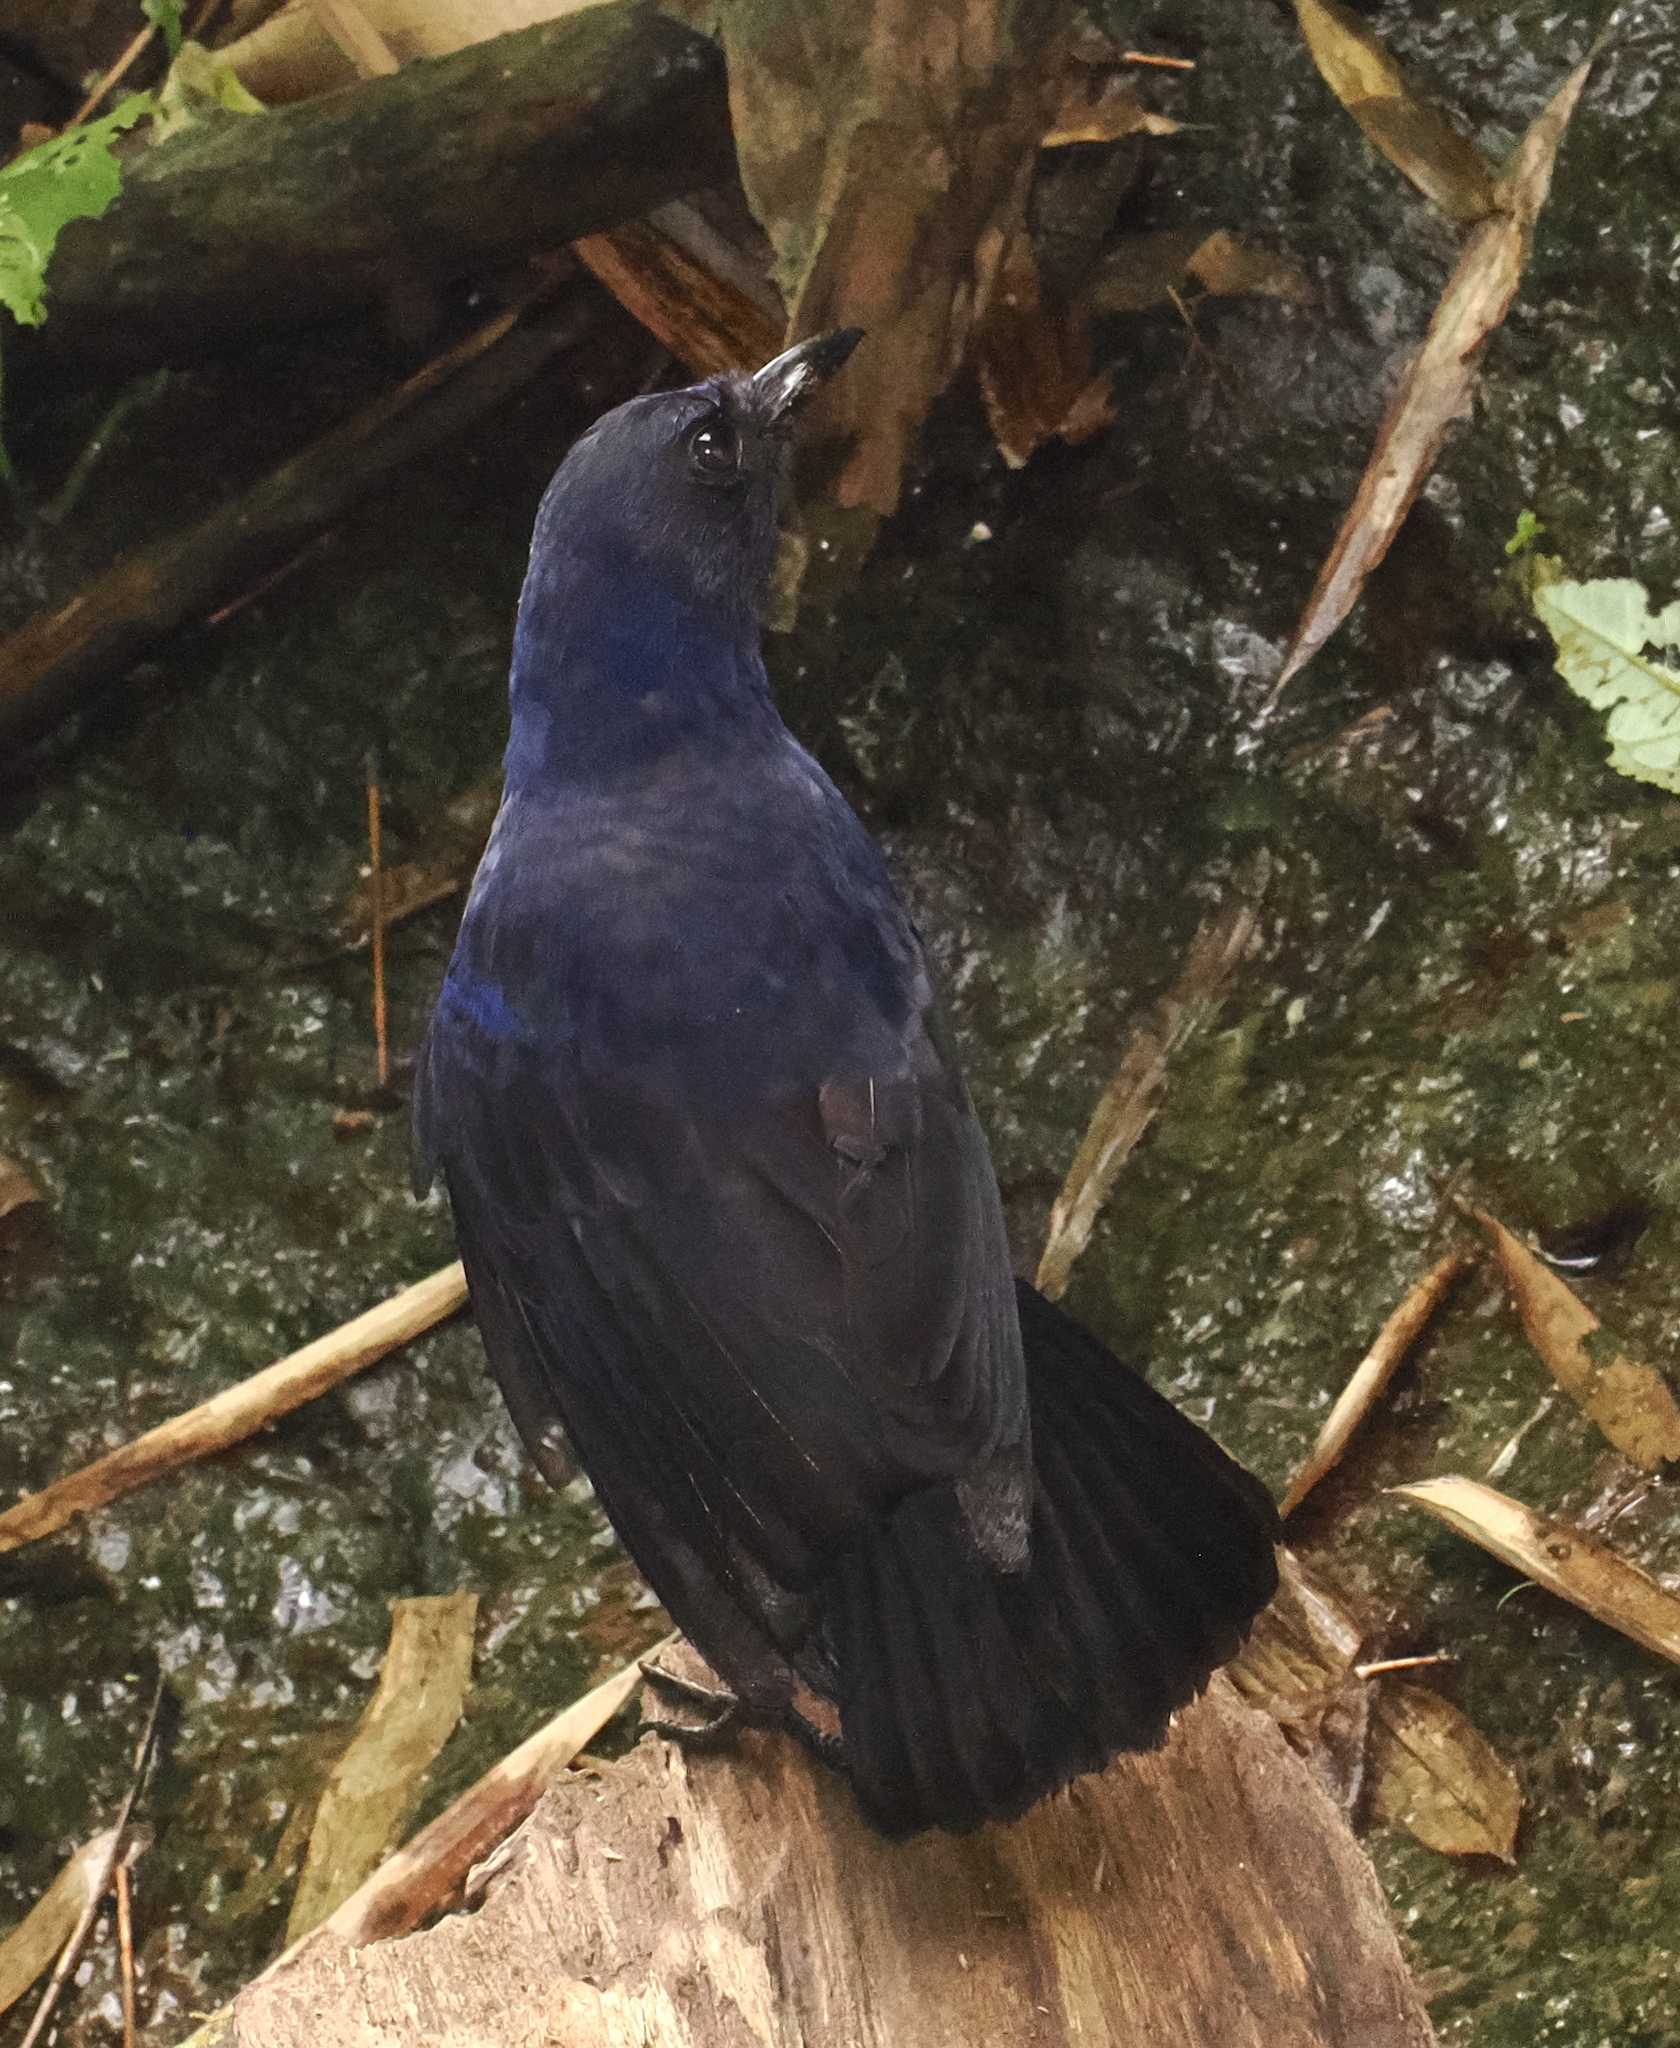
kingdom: Animalia
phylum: Chordata
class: Aves
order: Passeriformes
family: Muscicapidae
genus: Myophonus
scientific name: Myophonus glaucinus
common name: Javan whistling-thrush
